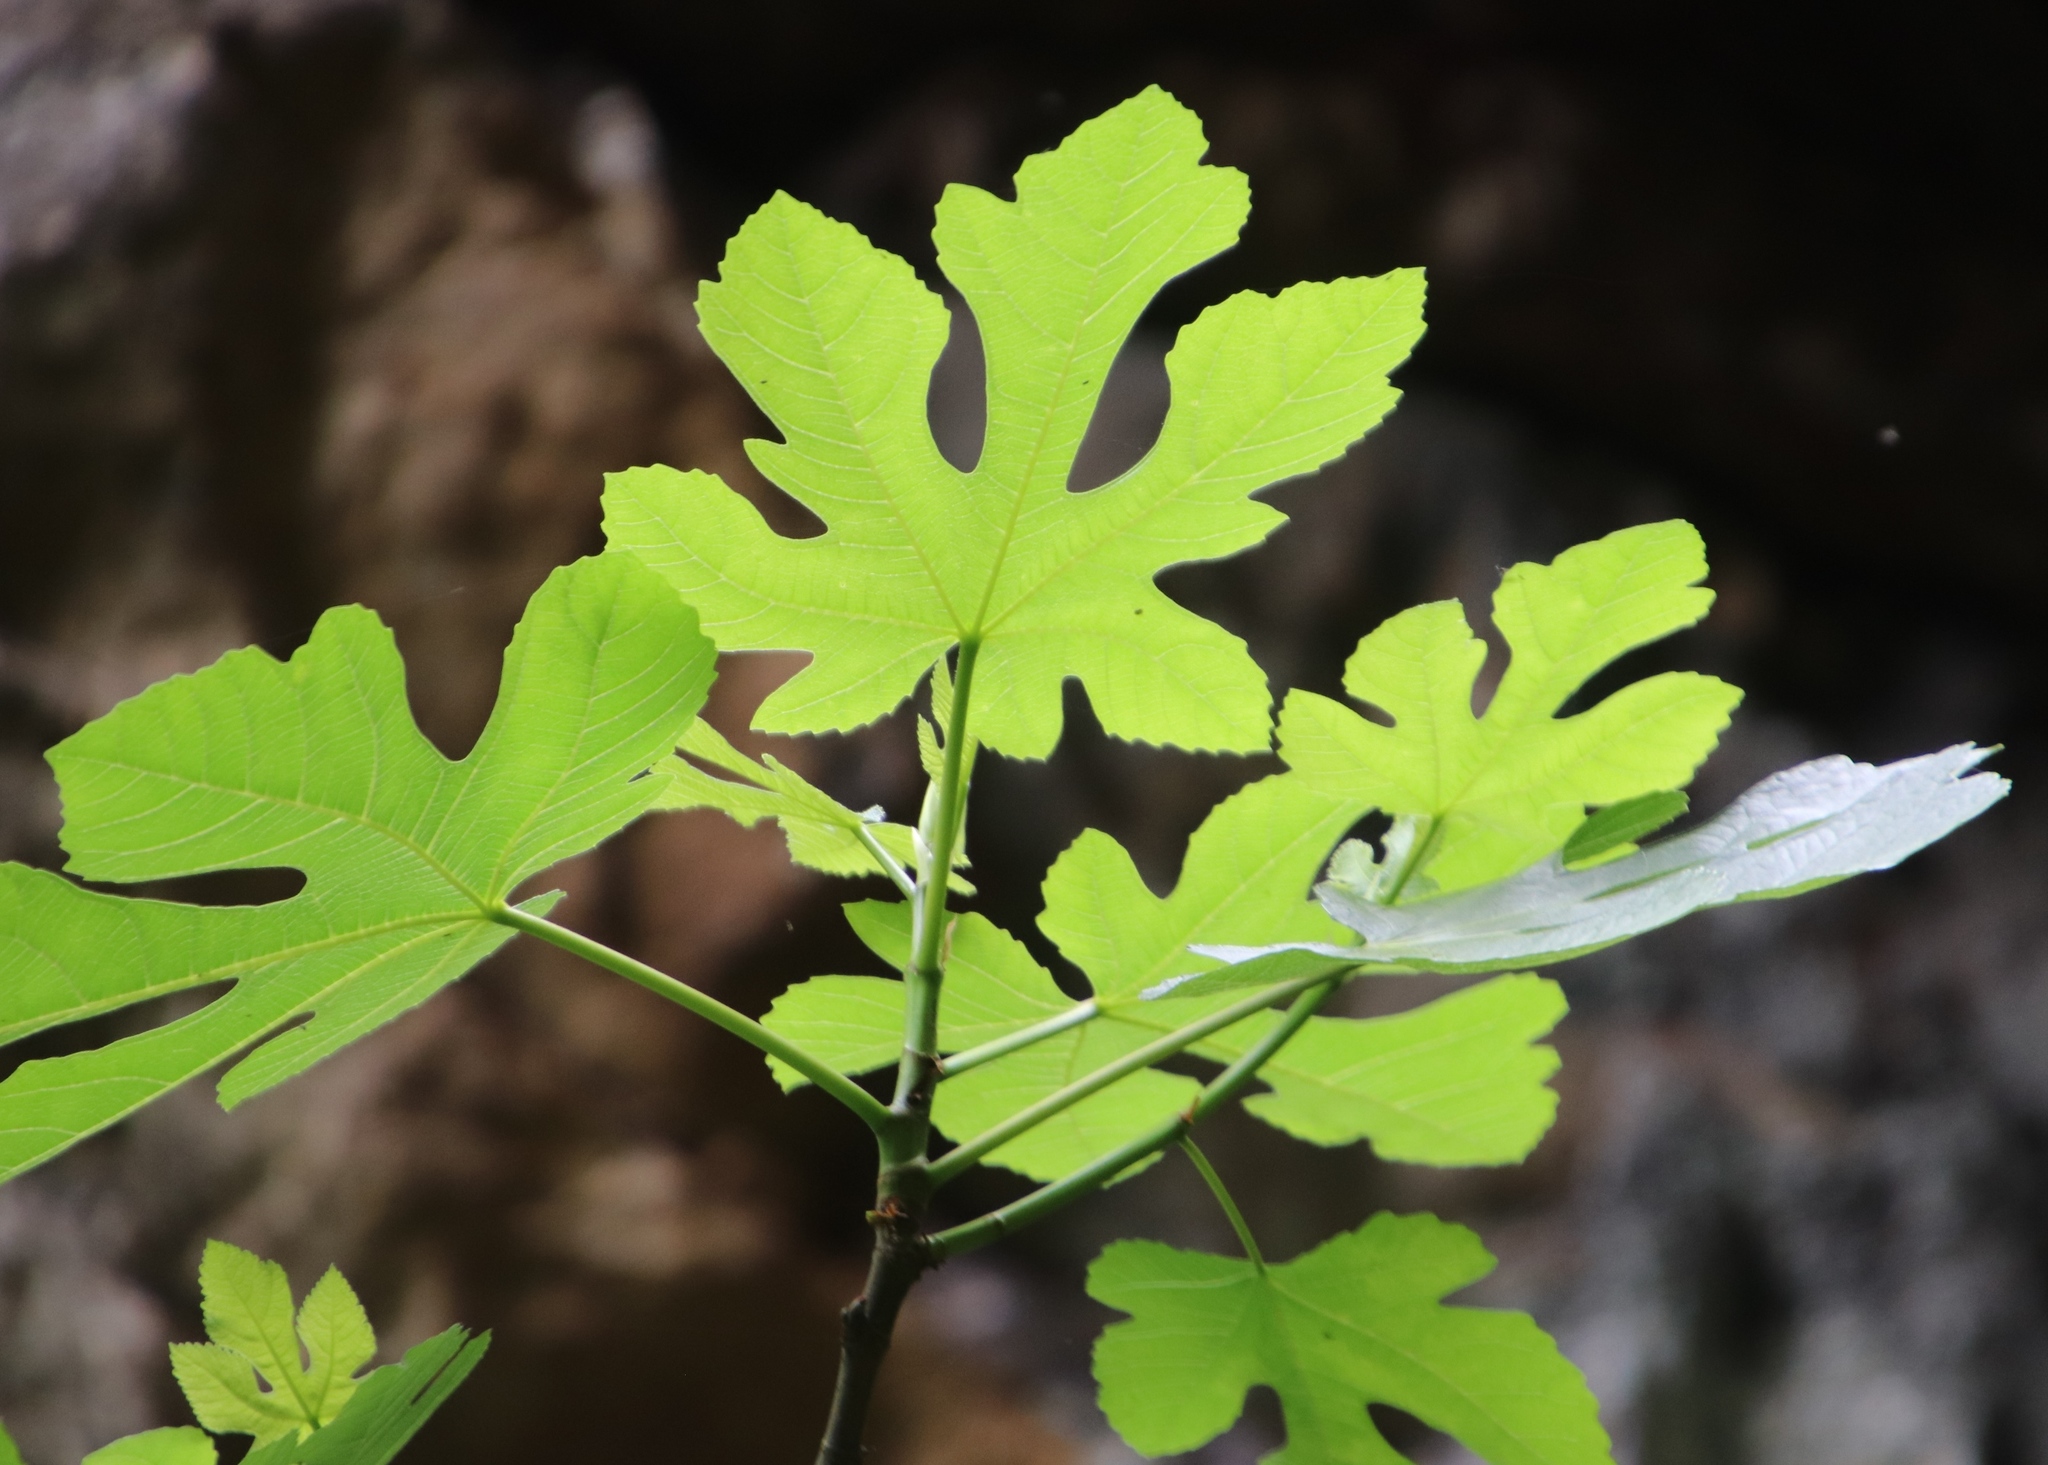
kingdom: Plantae
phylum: Tracheophyta
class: Magnoliopsida
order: Rosales
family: Moraceae
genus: Ficus
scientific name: Ficus carica
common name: Fig
